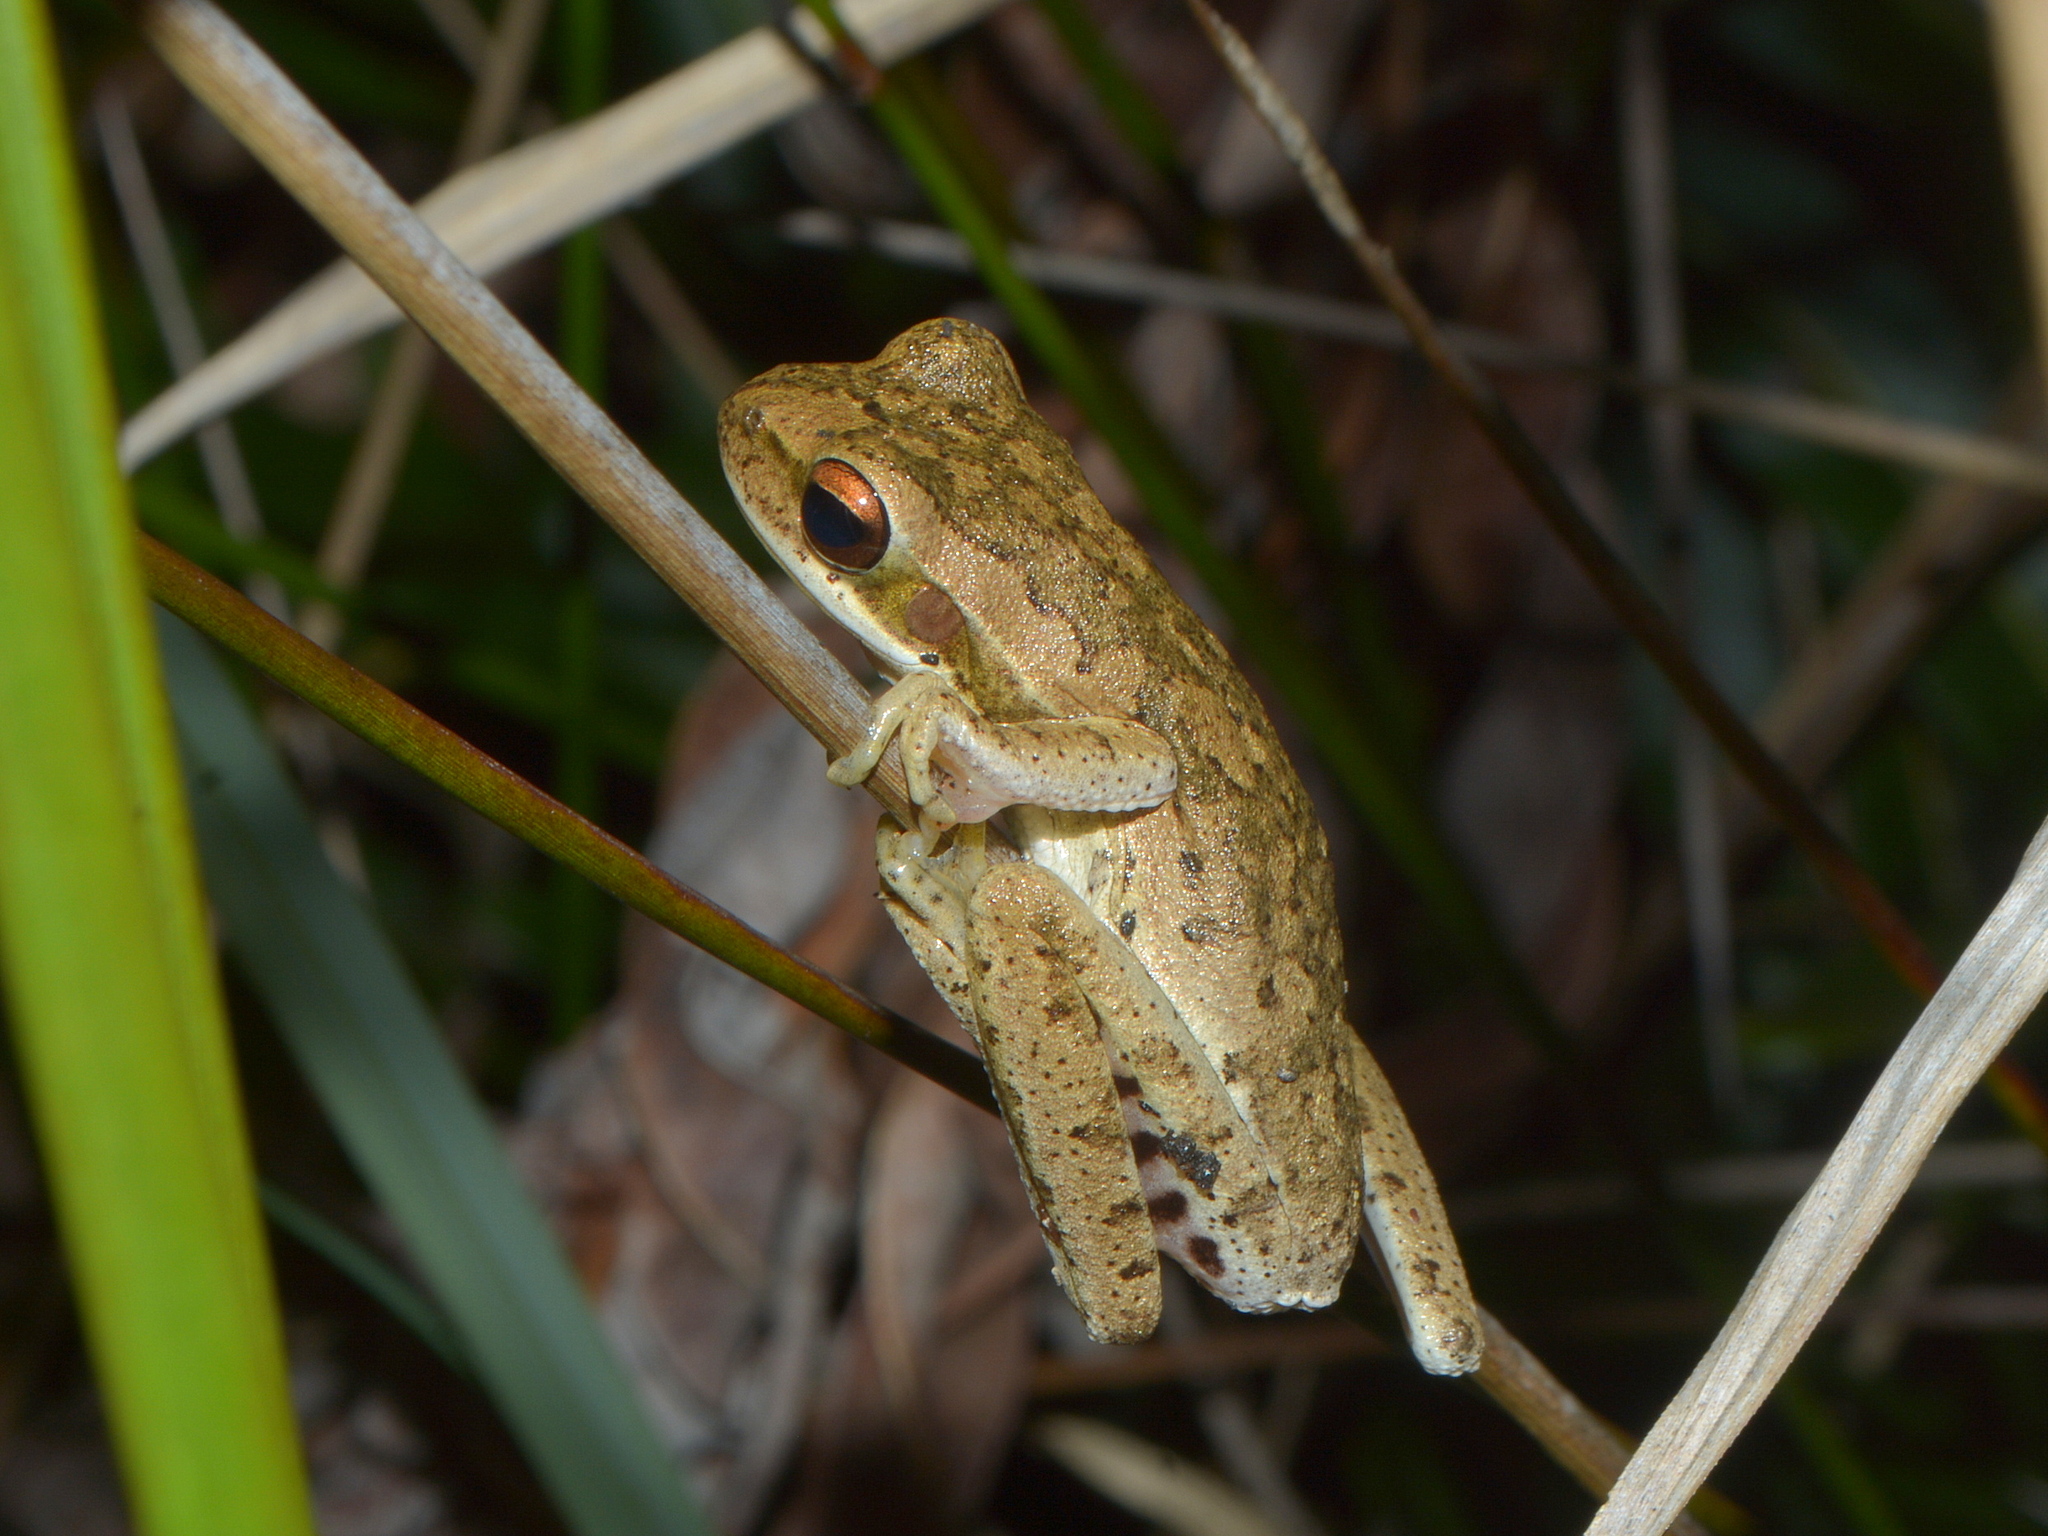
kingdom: Animalia
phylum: Chordata
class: Amphibia
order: Anura
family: Hylidae
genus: Boana
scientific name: Boana pulchella
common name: Montevideo treefrog
